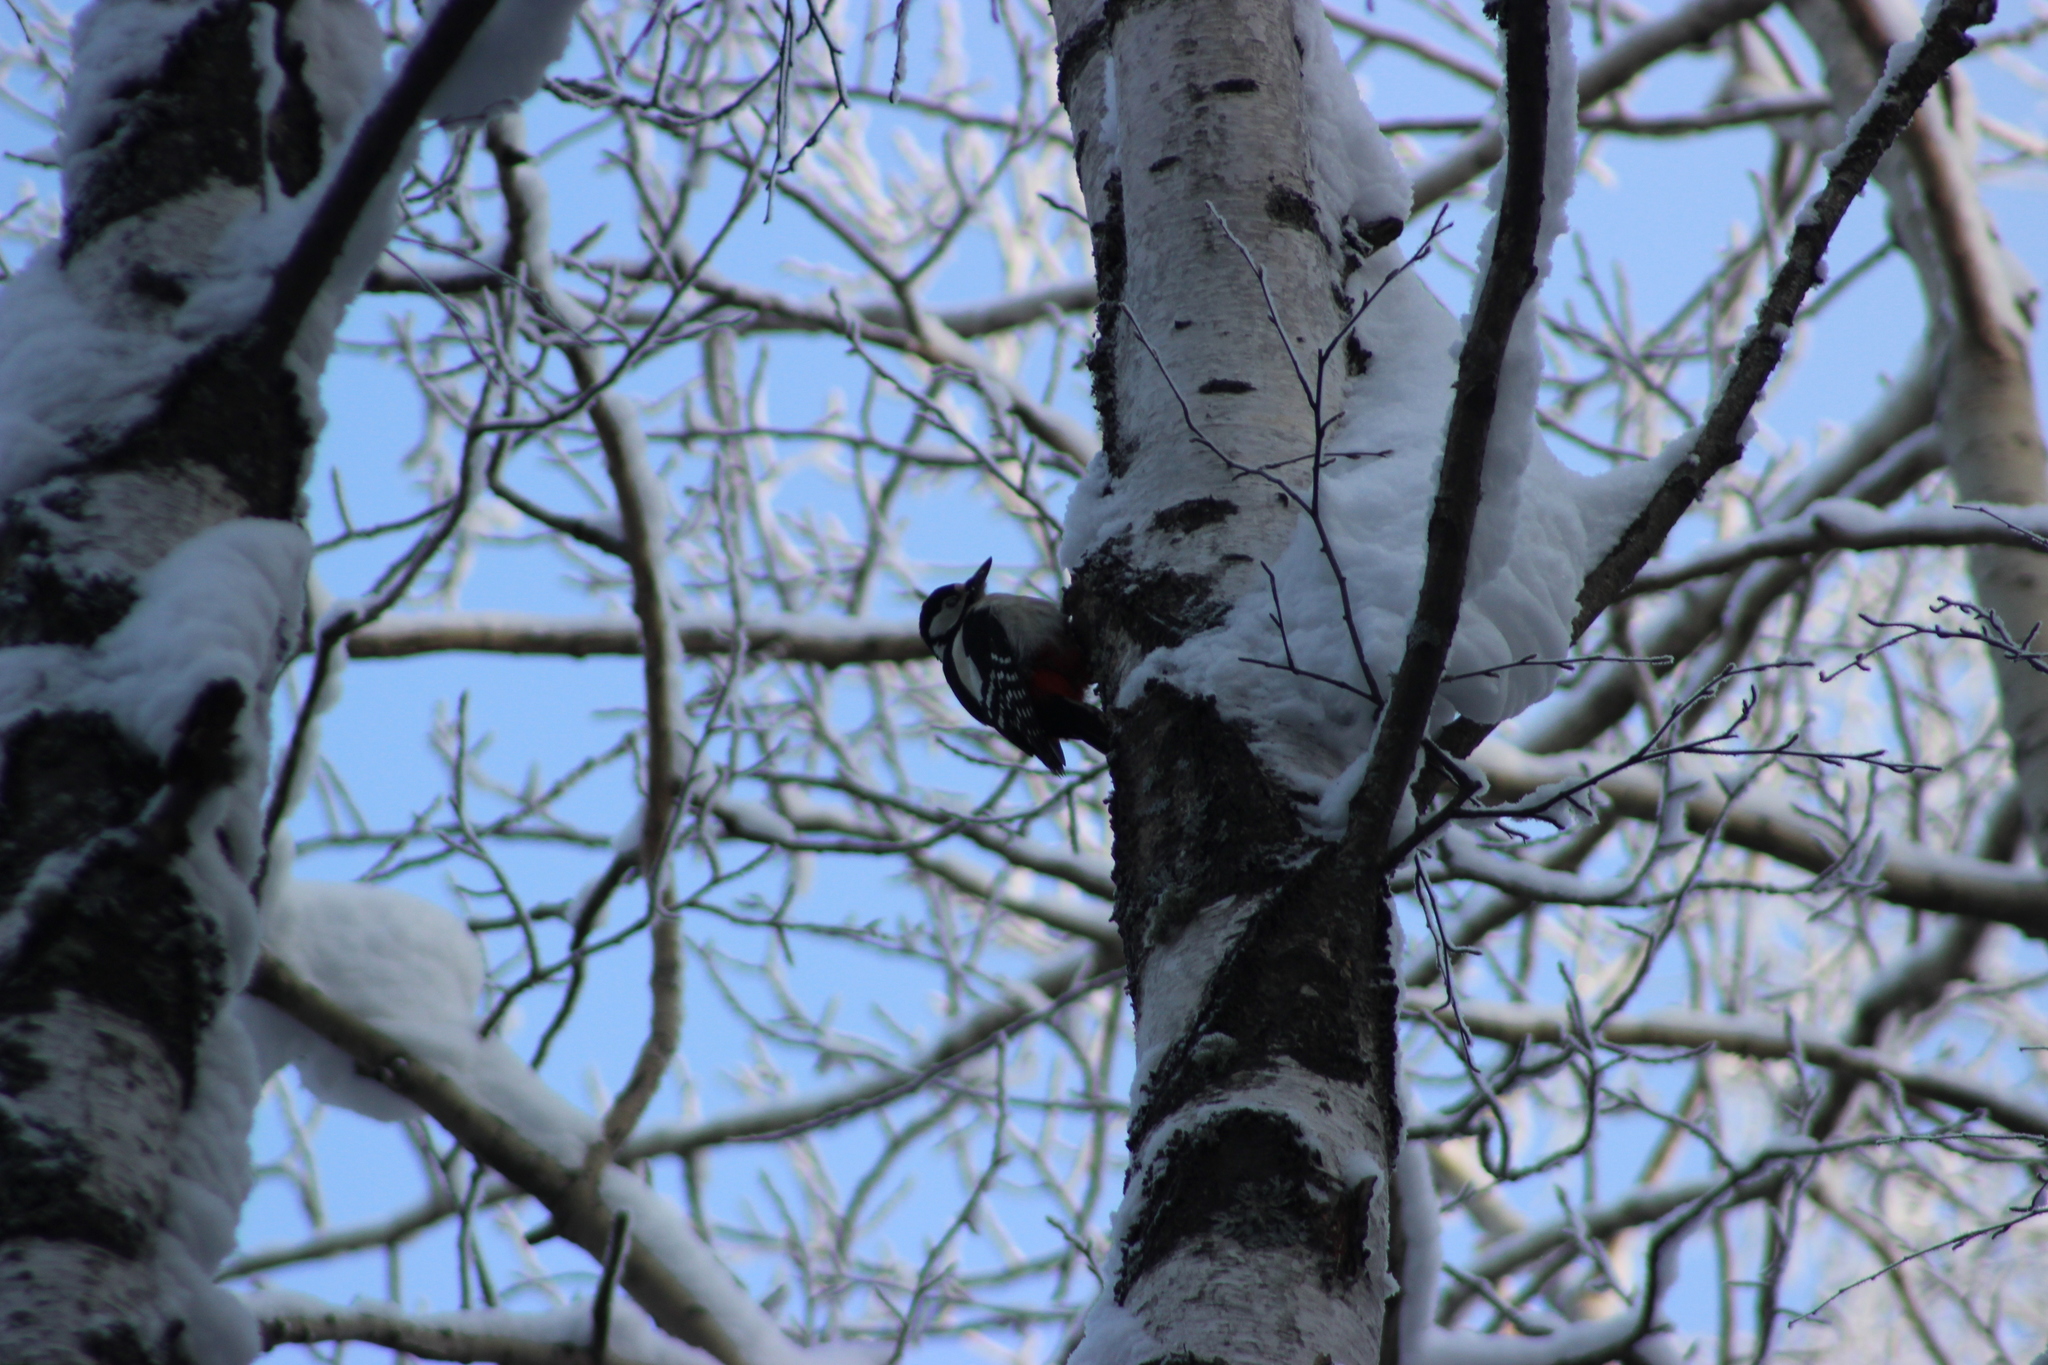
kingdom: Animalia
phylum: Chordata
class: Aves
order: Piciformes
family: Picidae
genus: Dendrocopos
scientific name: Dendrocopos major
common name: Great spotted woodpecker
